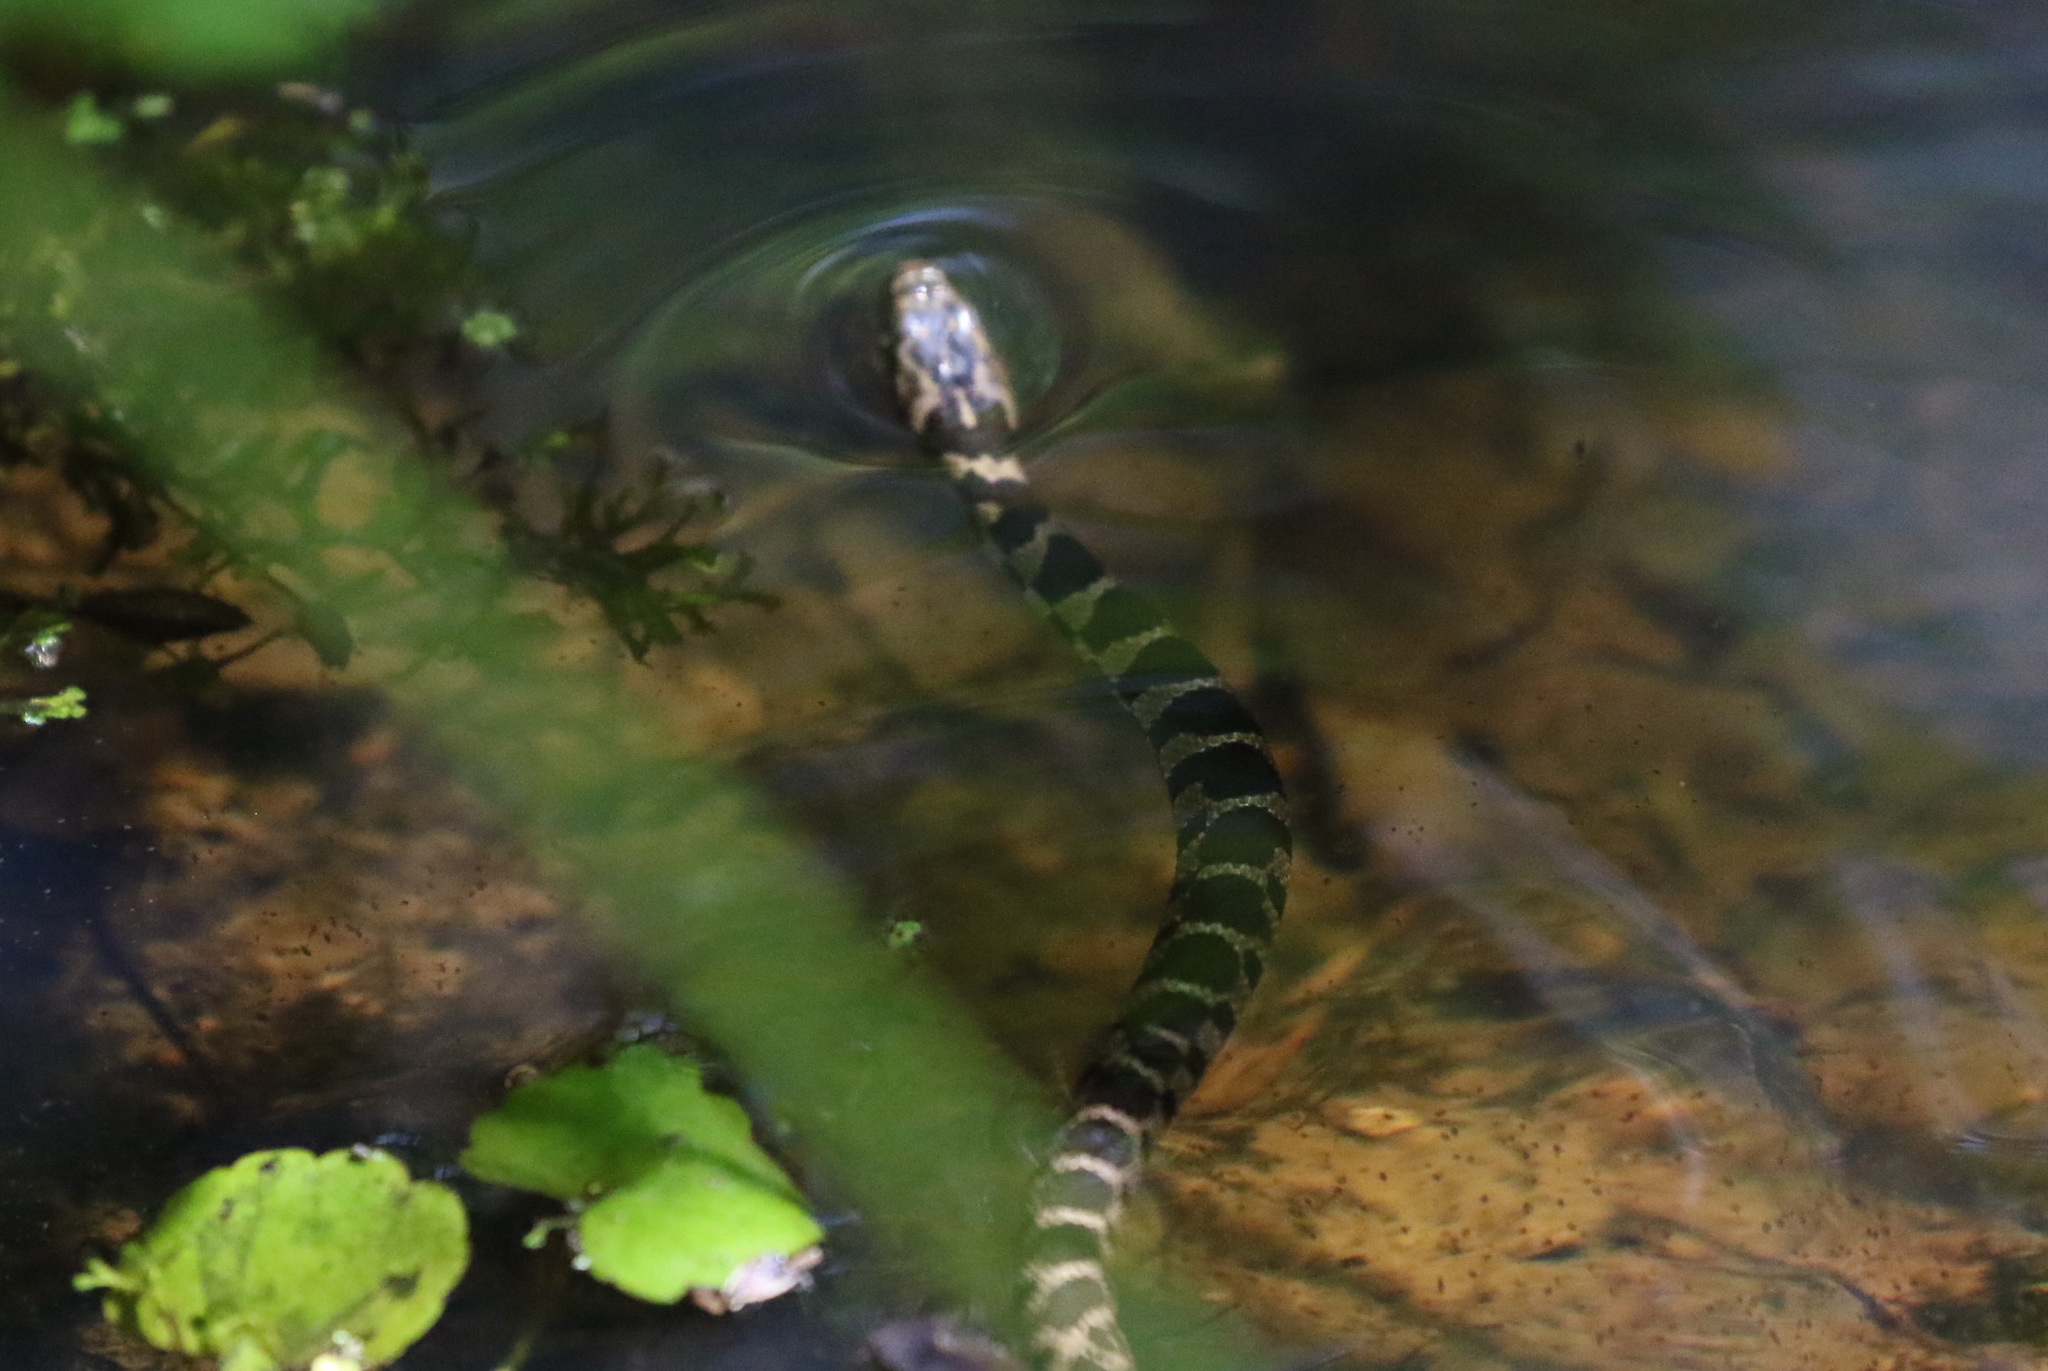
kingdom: Animalia
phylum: Chordata
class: Squamata
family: Colubridae
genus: Nerodia
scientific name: Nerodia sipedon
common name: Northern water snake
